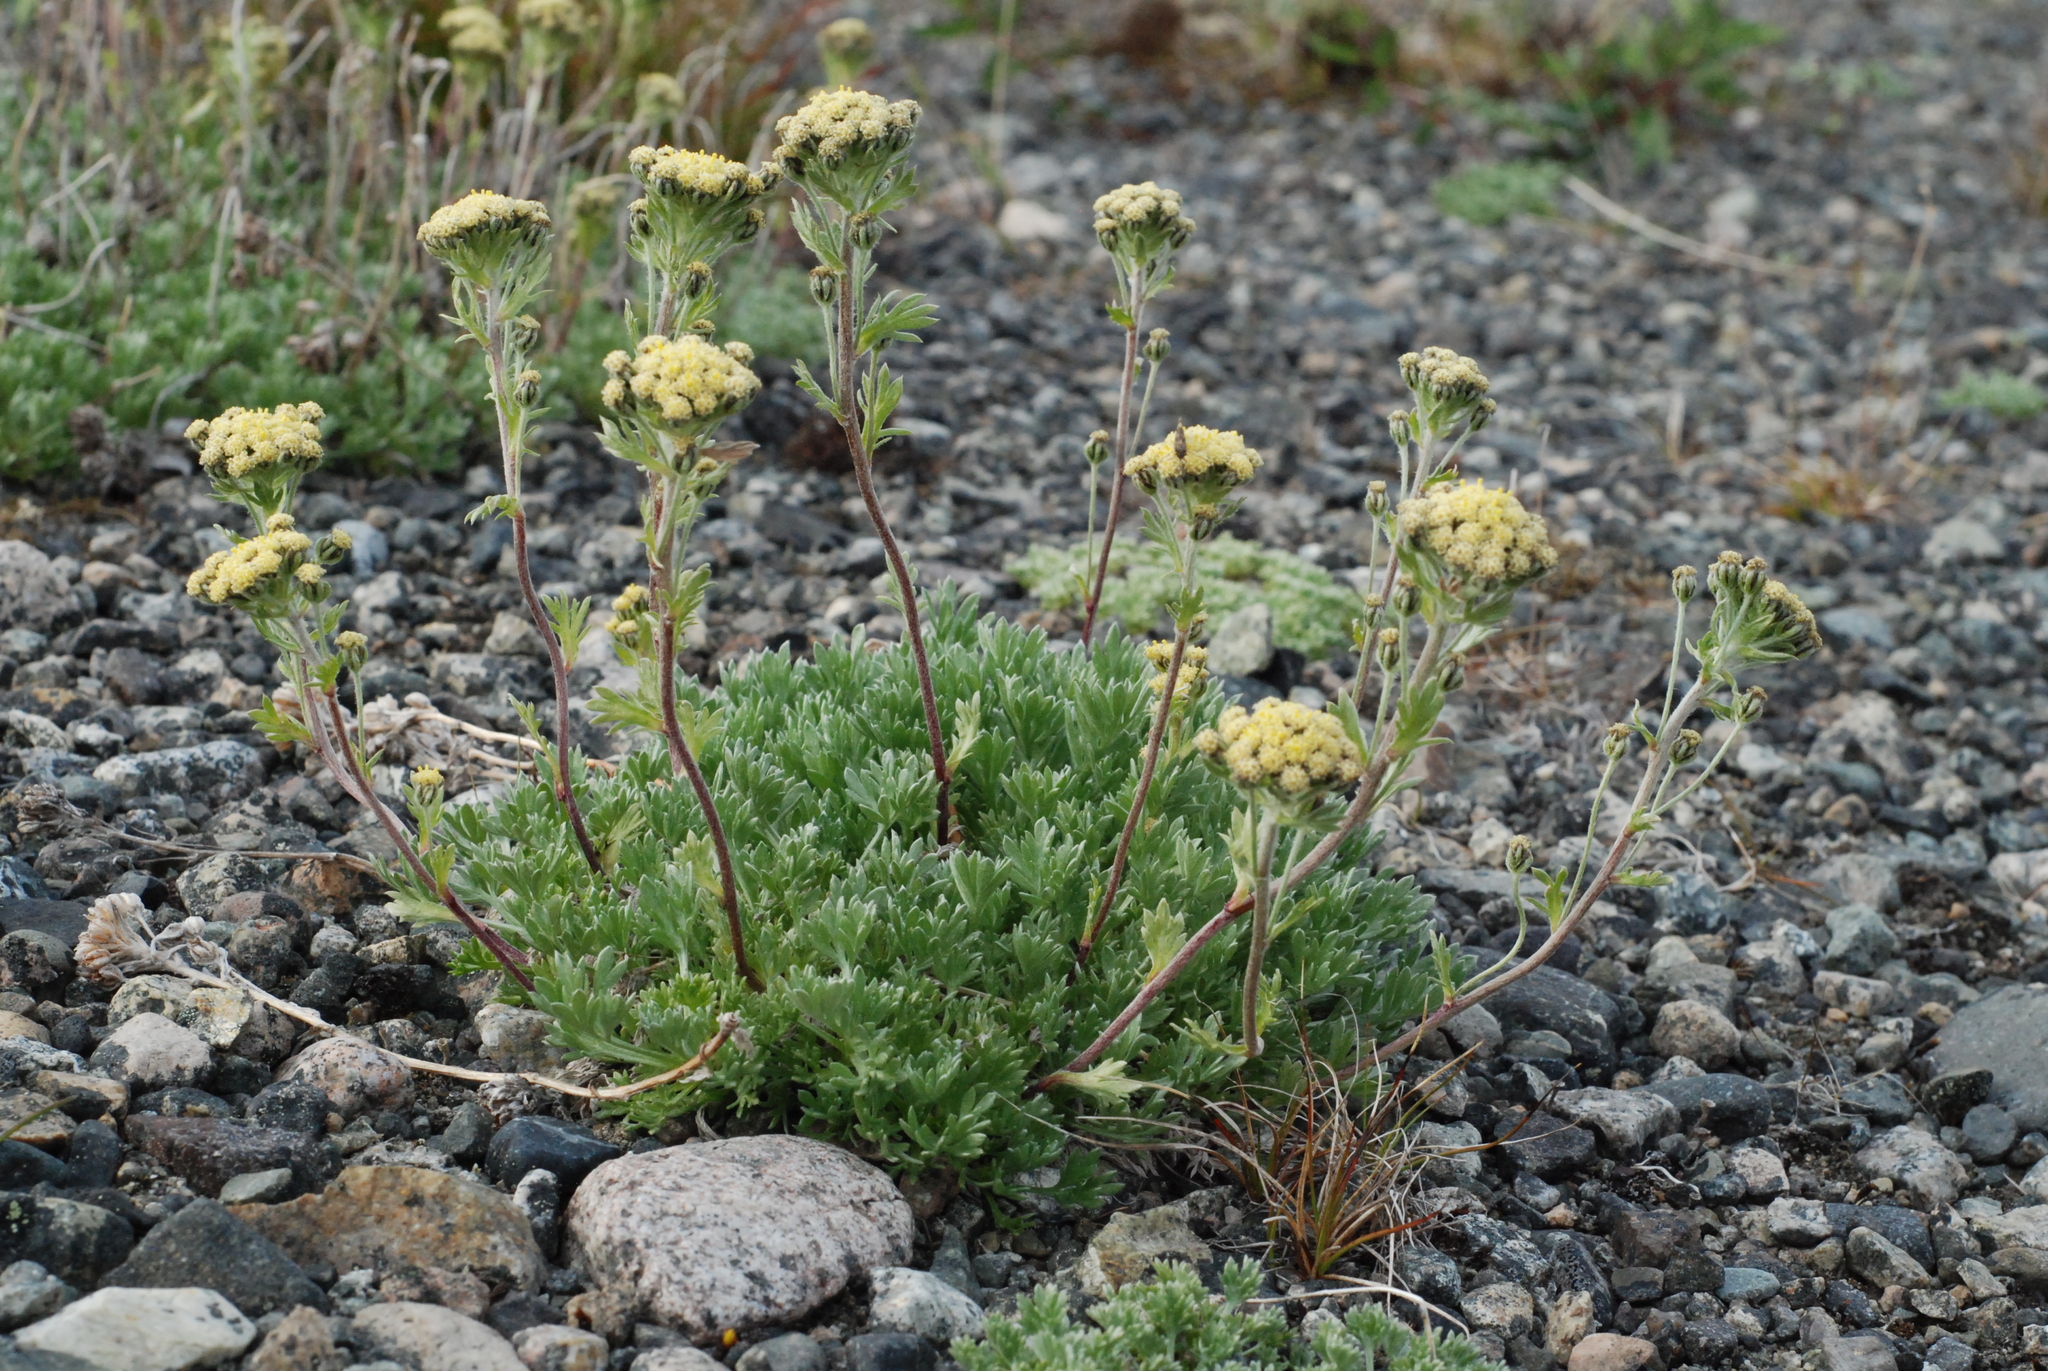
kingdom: Plantae
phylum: Tracheophyta
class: Magnoliopsida
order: Asterales
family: Asteraceae
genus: Artemisia
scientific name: Artemisia glomerata
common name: Pacific alpine wormwood
